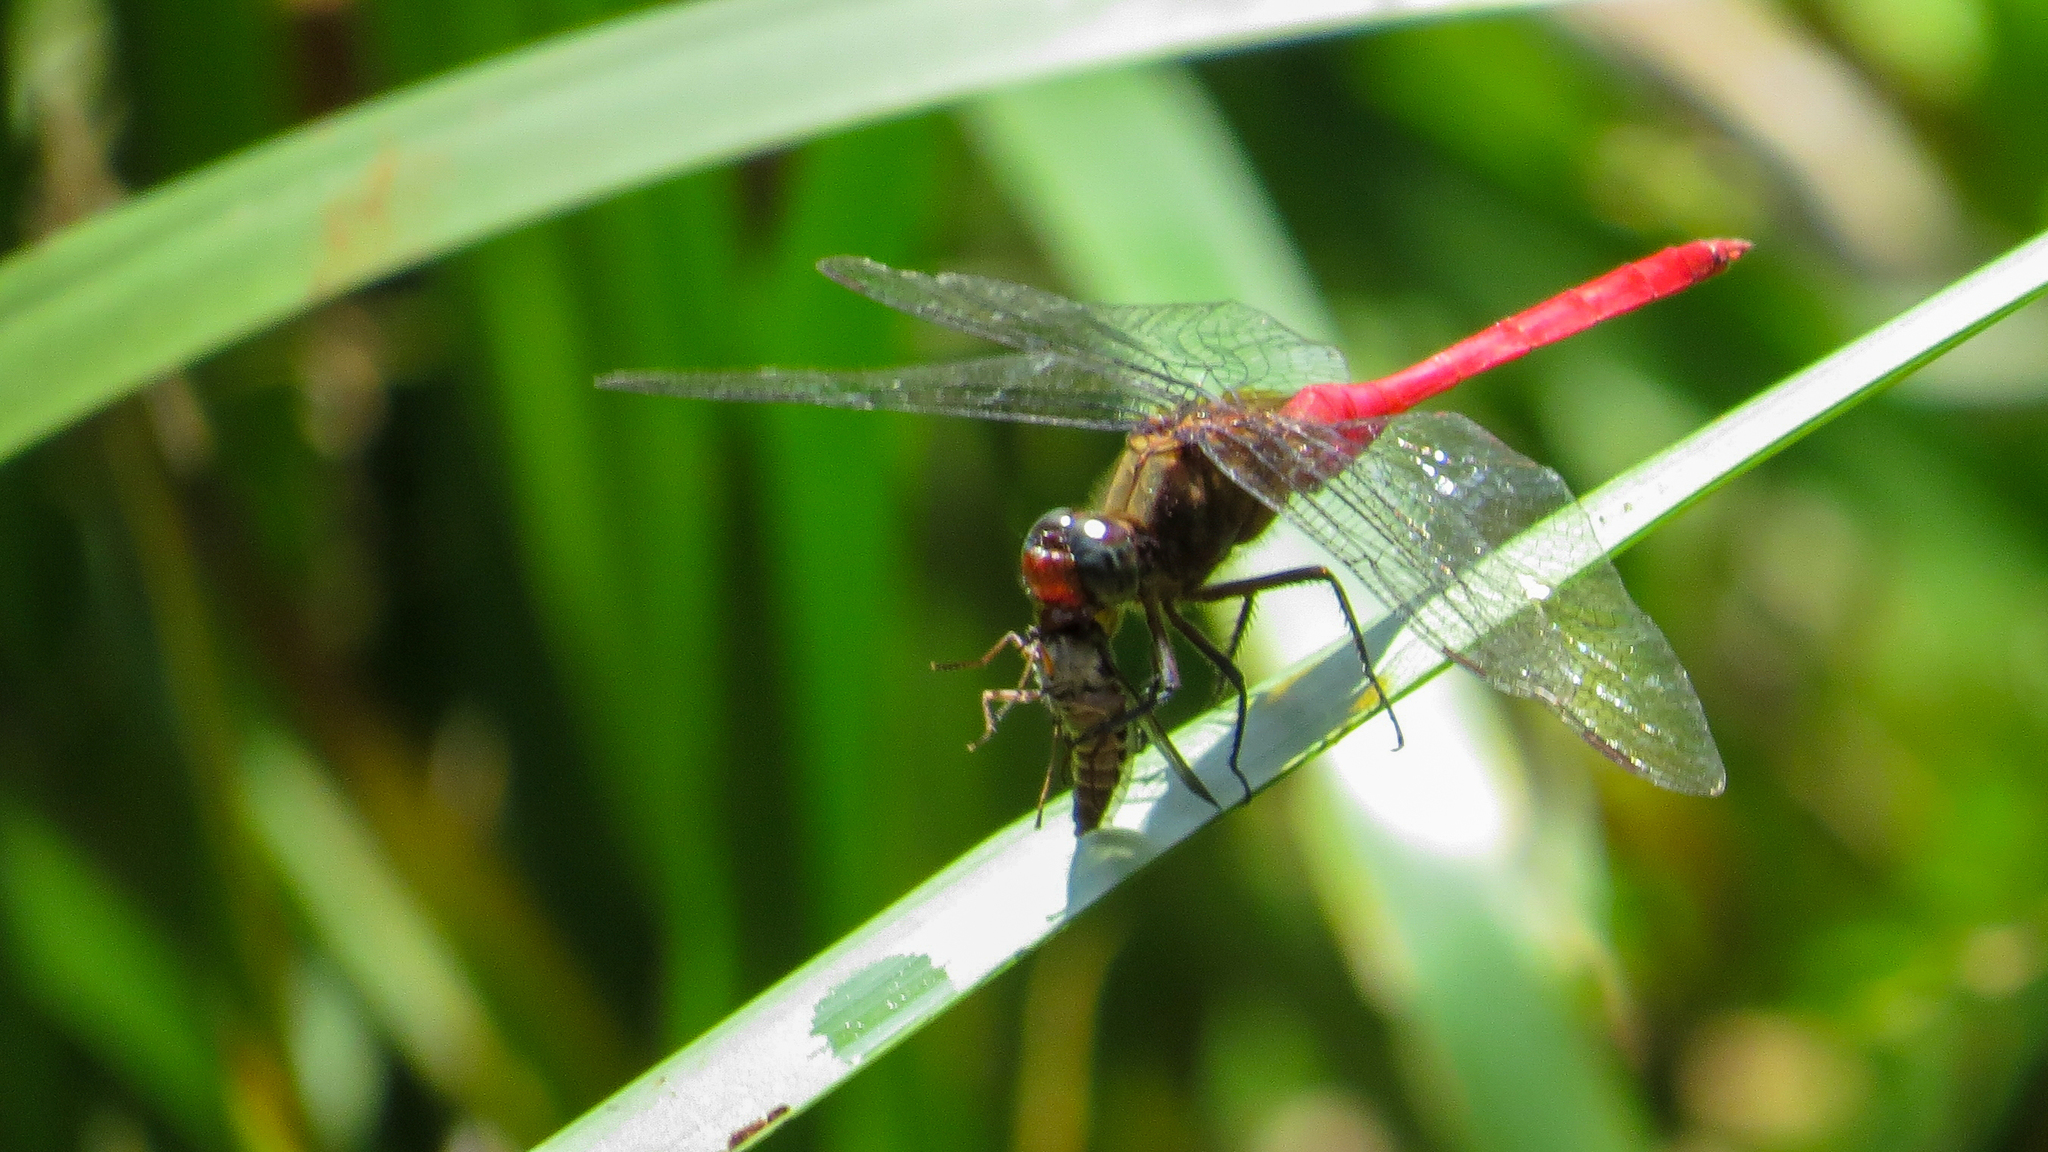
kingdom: Animalia
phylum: Arthropoda
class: Insecta
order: Odonata
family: Libellulidae
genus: Orthetrum
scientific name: Orthetrum villosovittatum
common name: Firery skimmer
